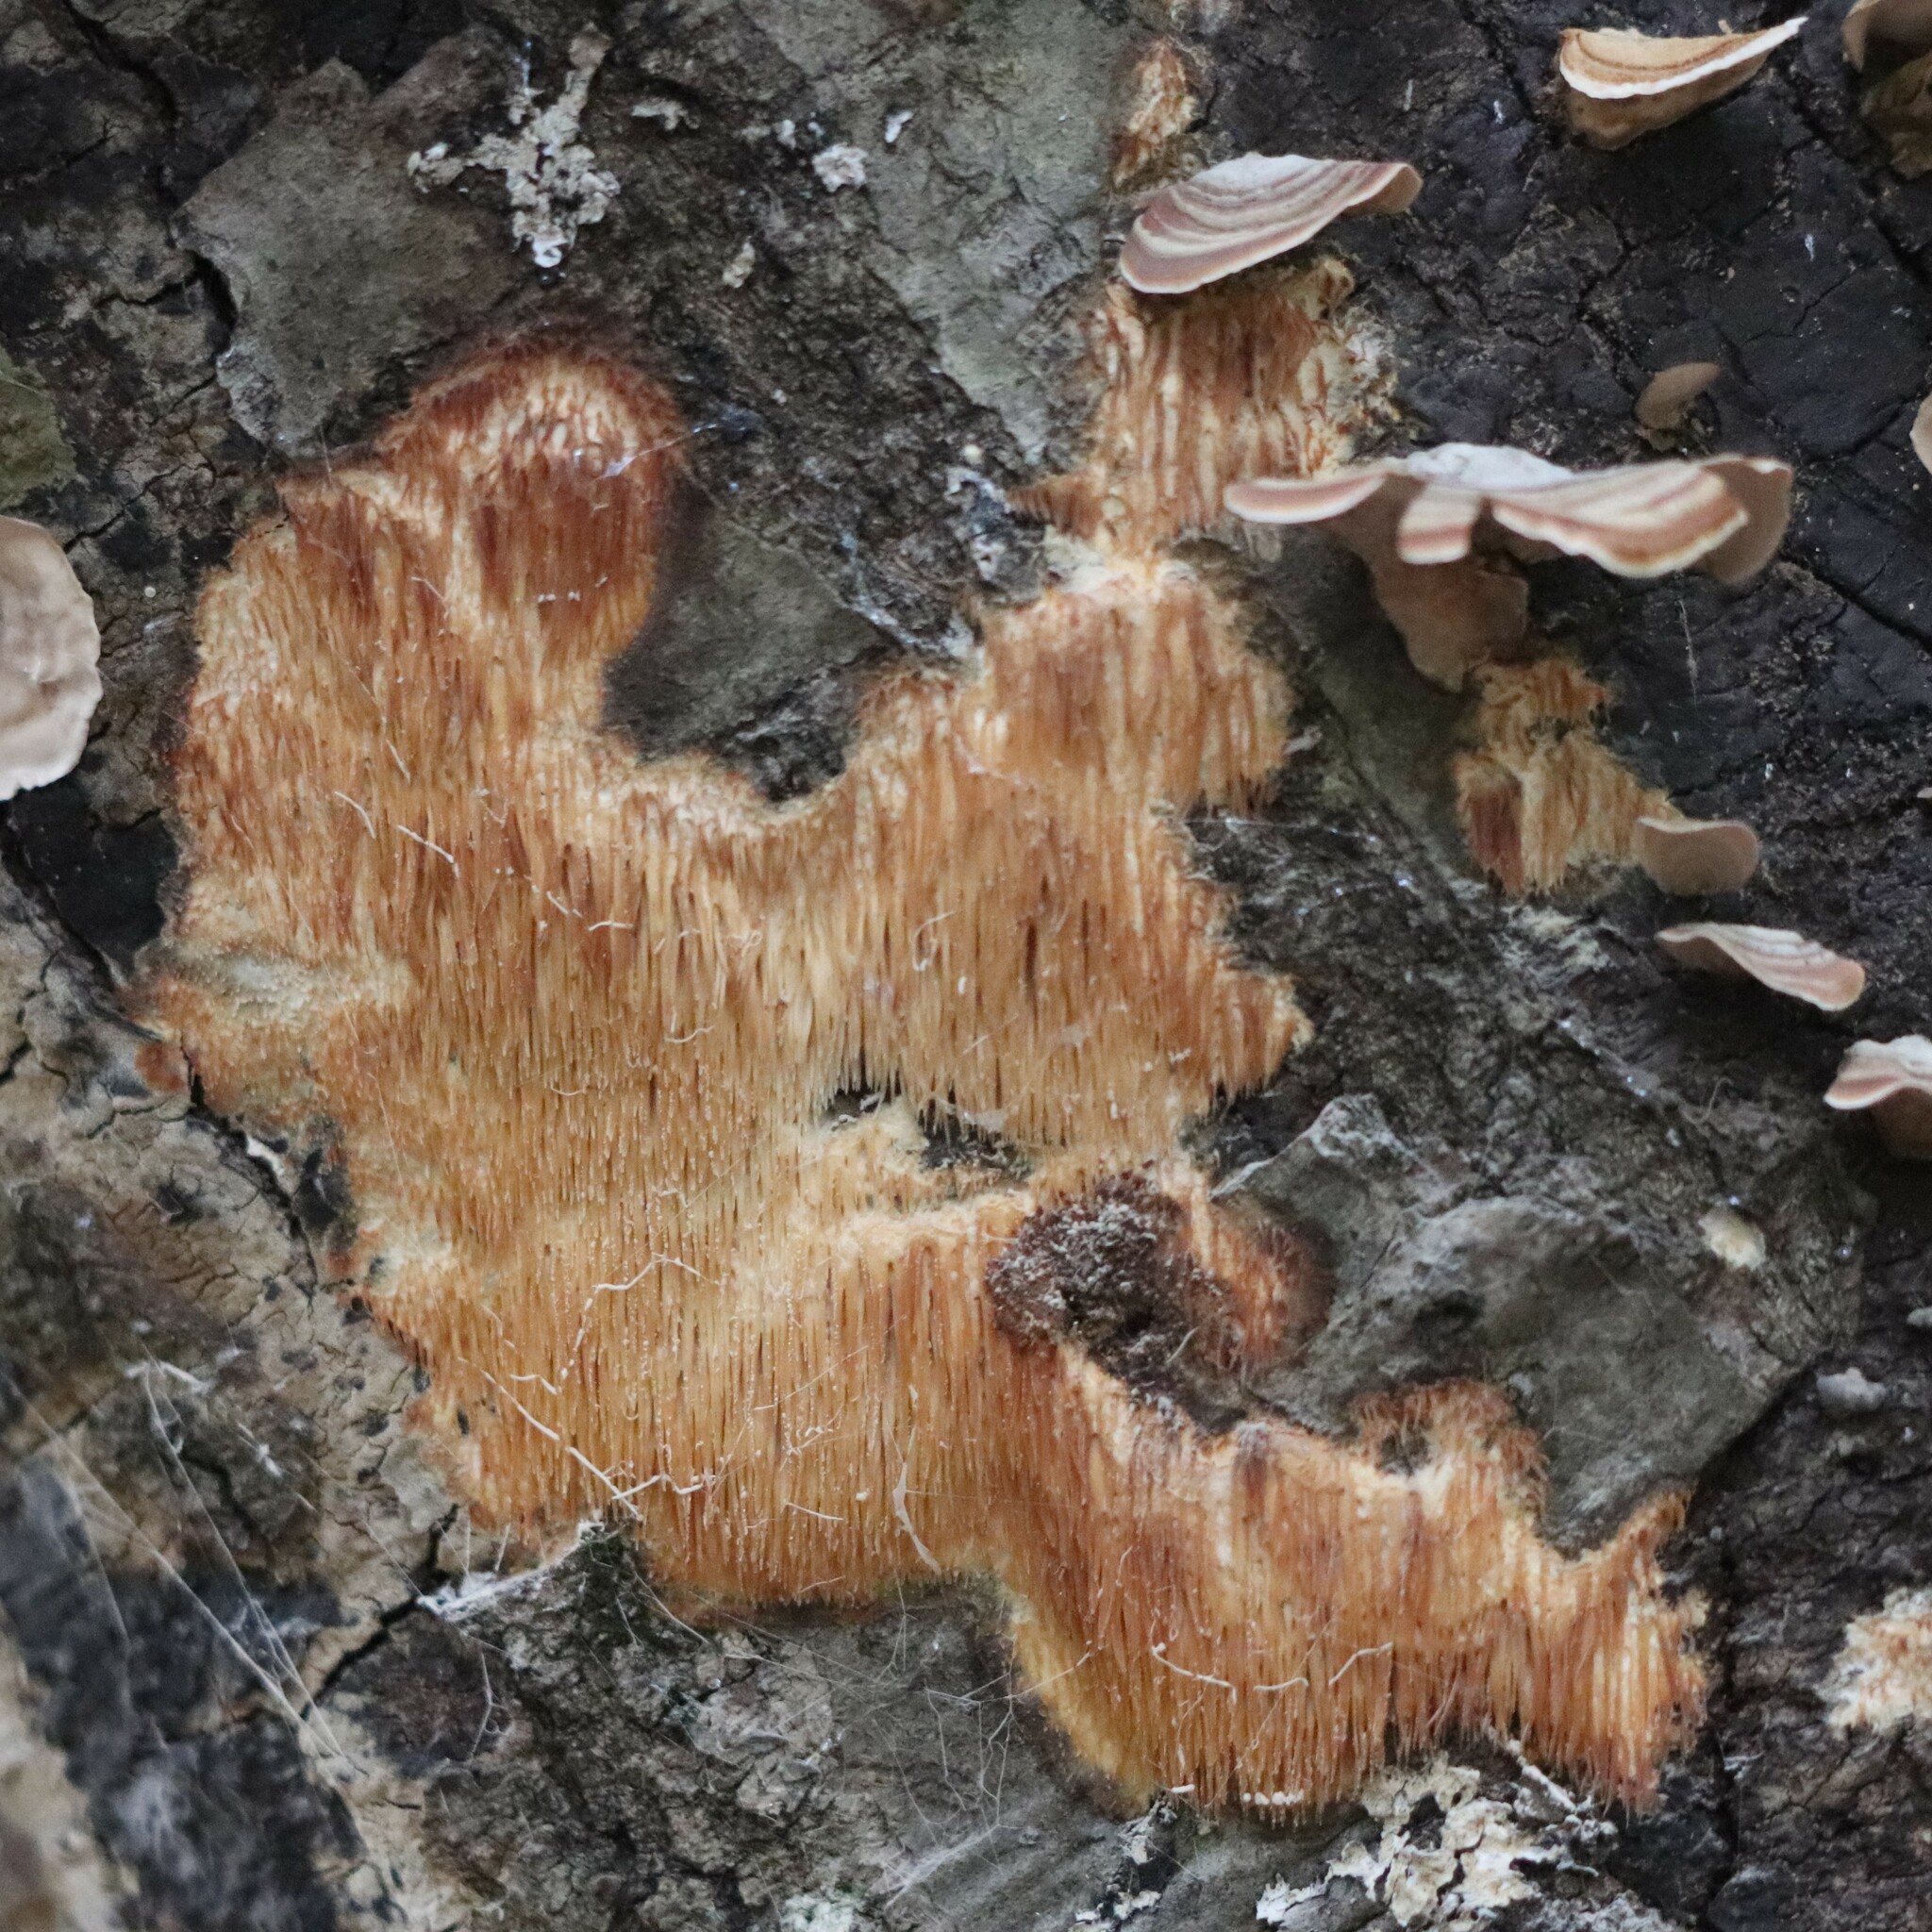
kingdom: Fungi
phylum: Basidiomycota
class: Agaricomycetes
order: Agaricales
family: Radulomycetaceae
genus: Radulomyces
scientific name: Radulomyces copelandii
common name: Asian beauty
